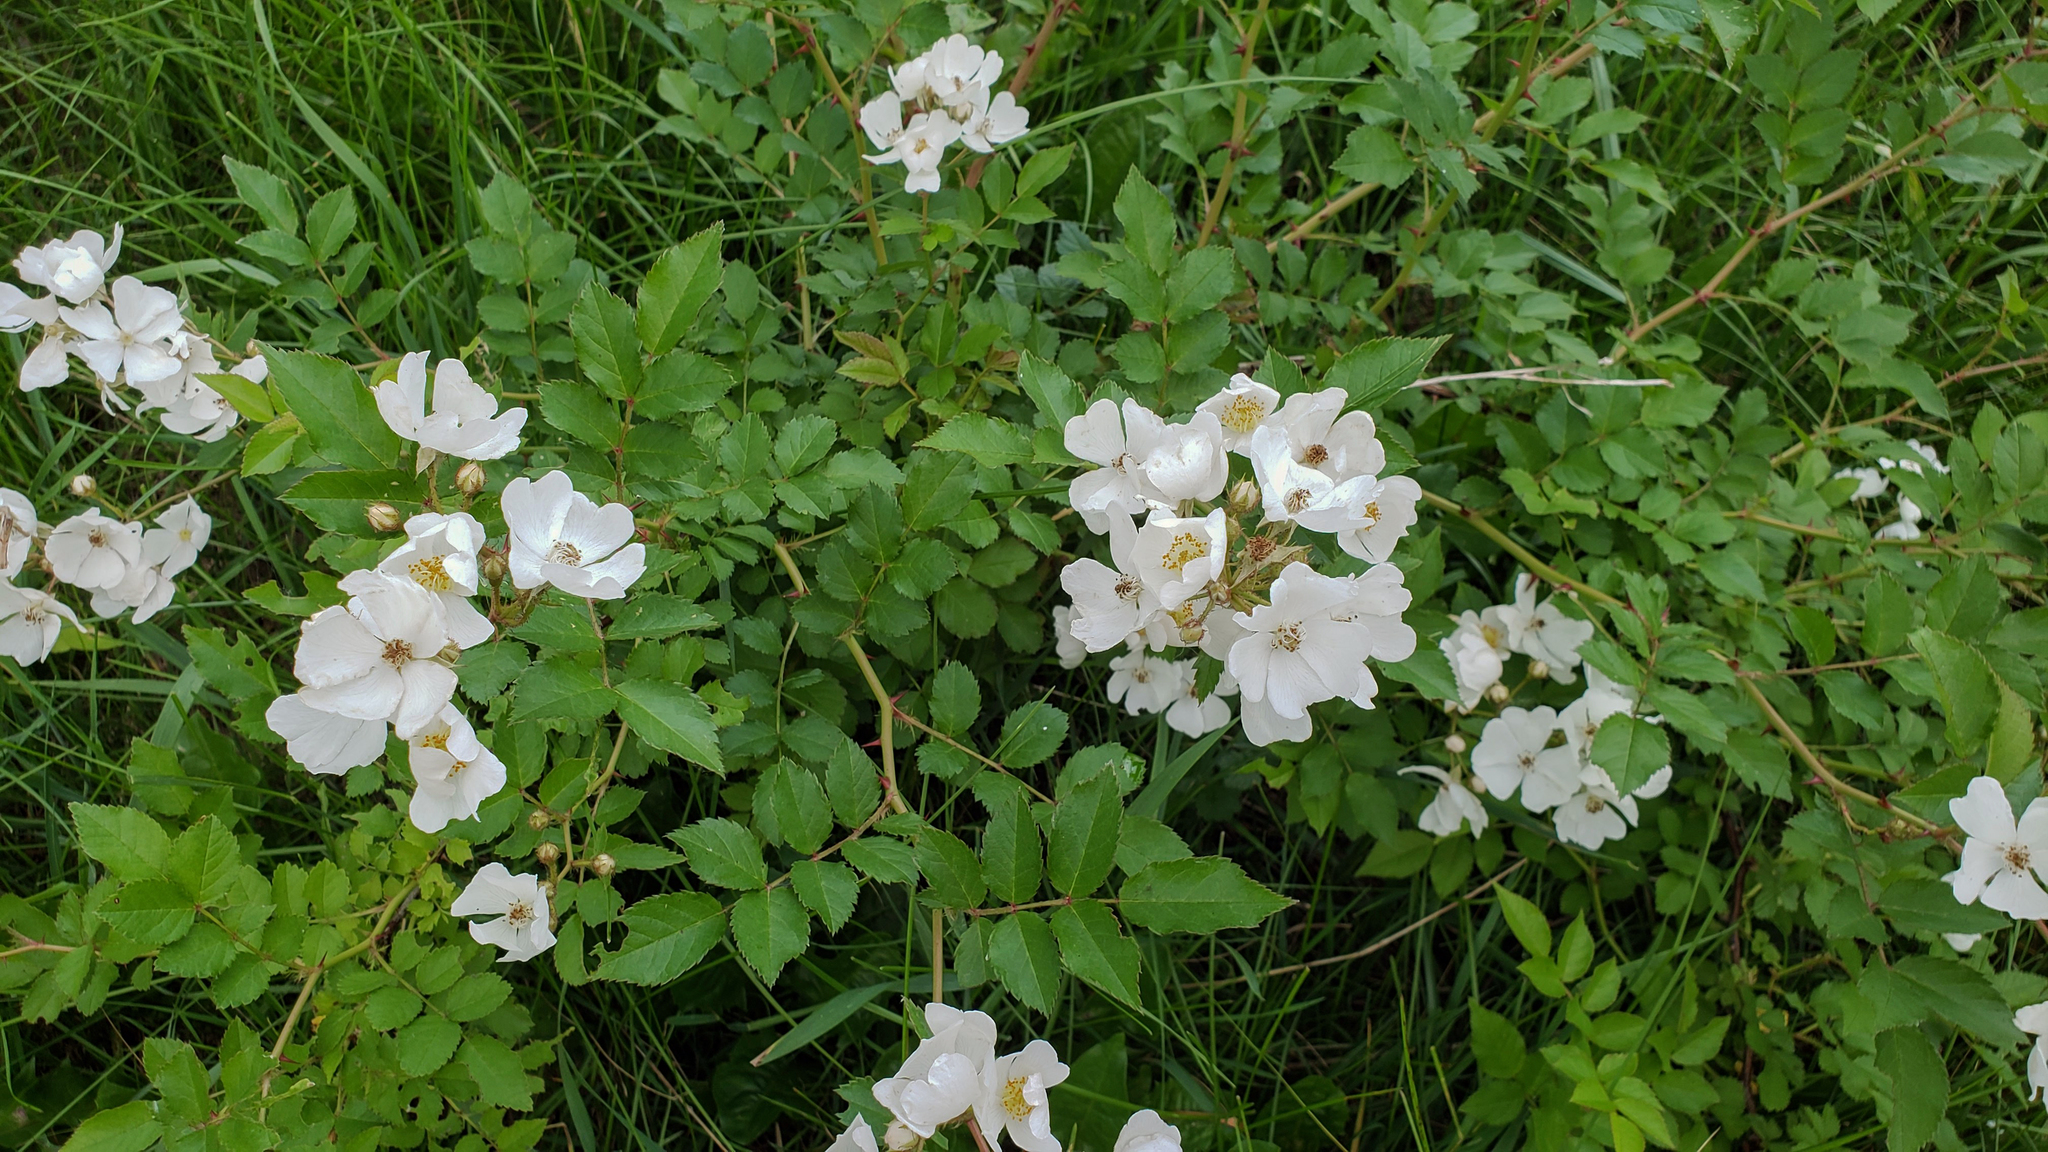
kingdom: Plantae
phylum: Tracheophyta
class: Magnoliopsida
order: Rosales
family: Rosaceae
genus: Rosa
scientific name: Rosa multiflora
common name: Multiflora rose
